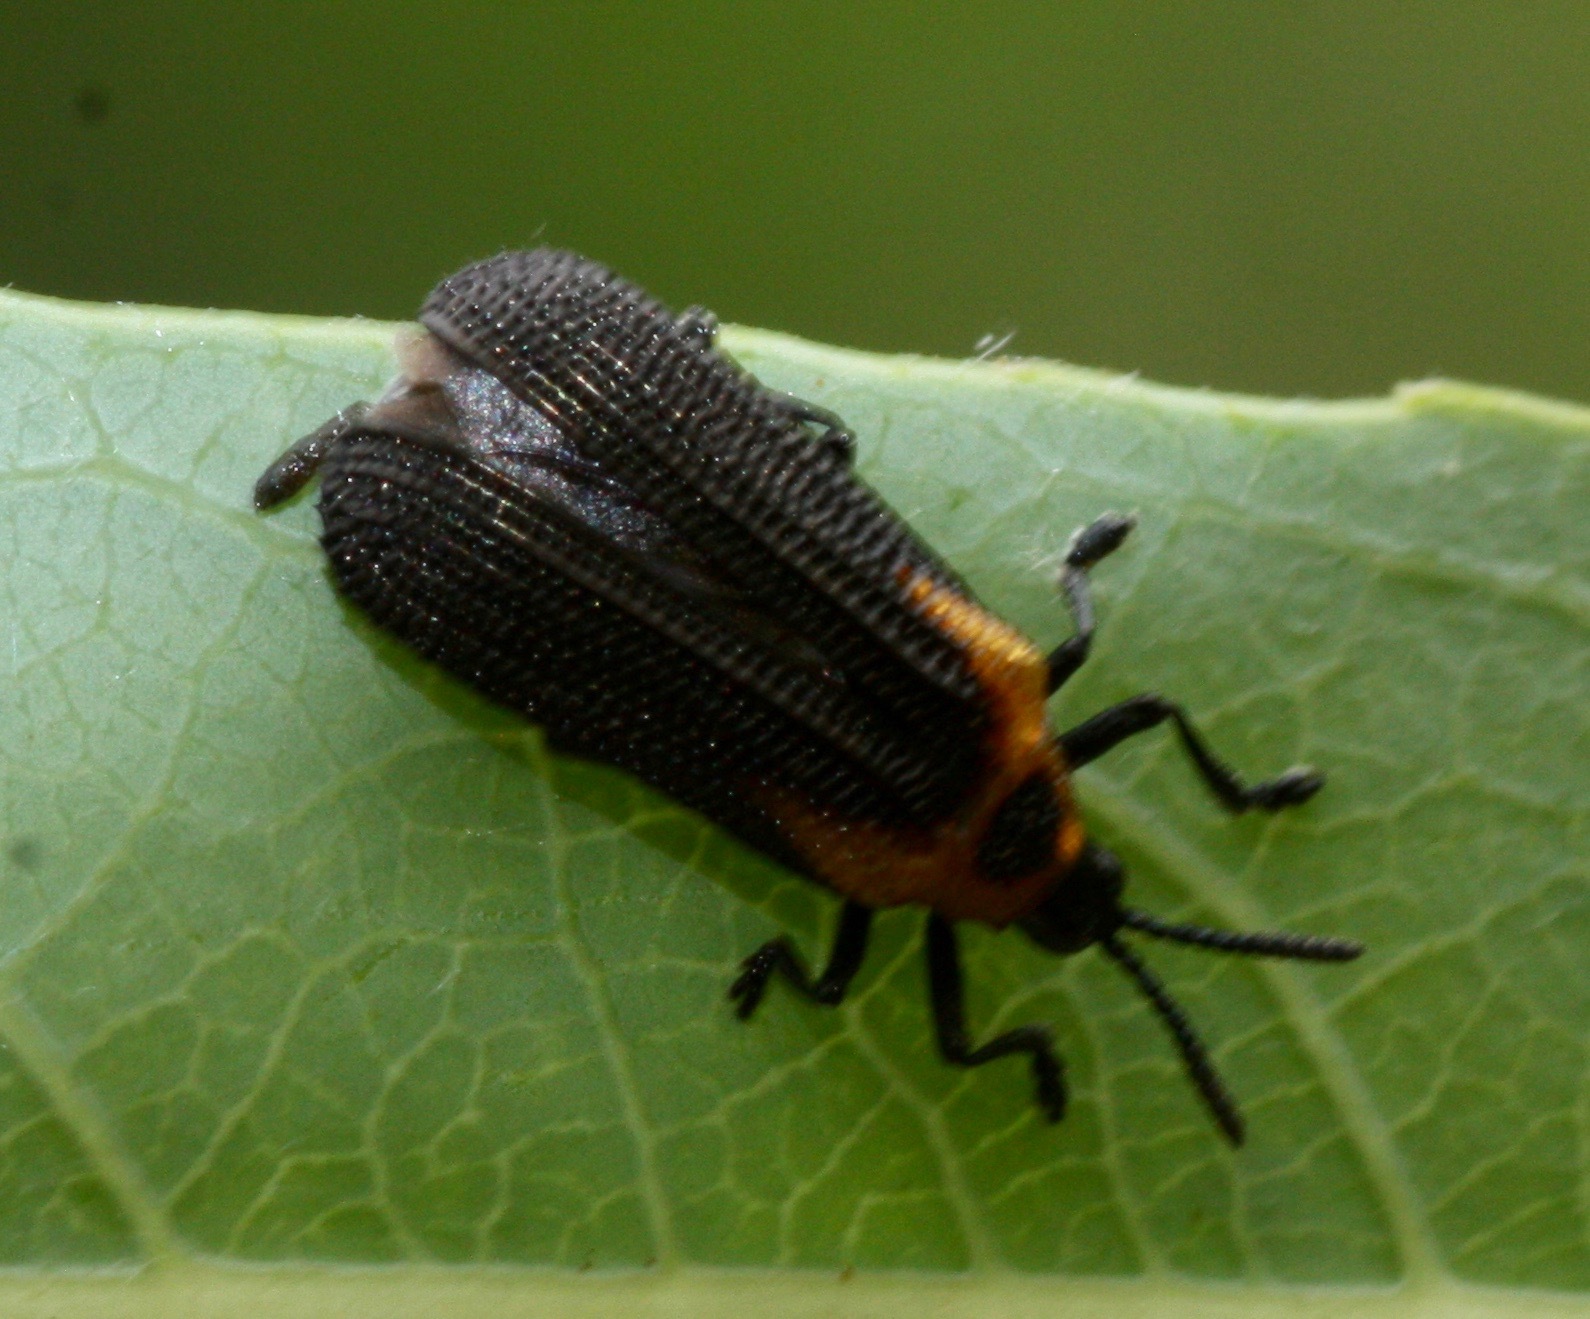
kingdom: Animalia
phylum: Arthropoda
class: Insecta
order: Coleoptera
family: Chrysomelidae
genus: Odontota
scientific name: Odontota arizonica
